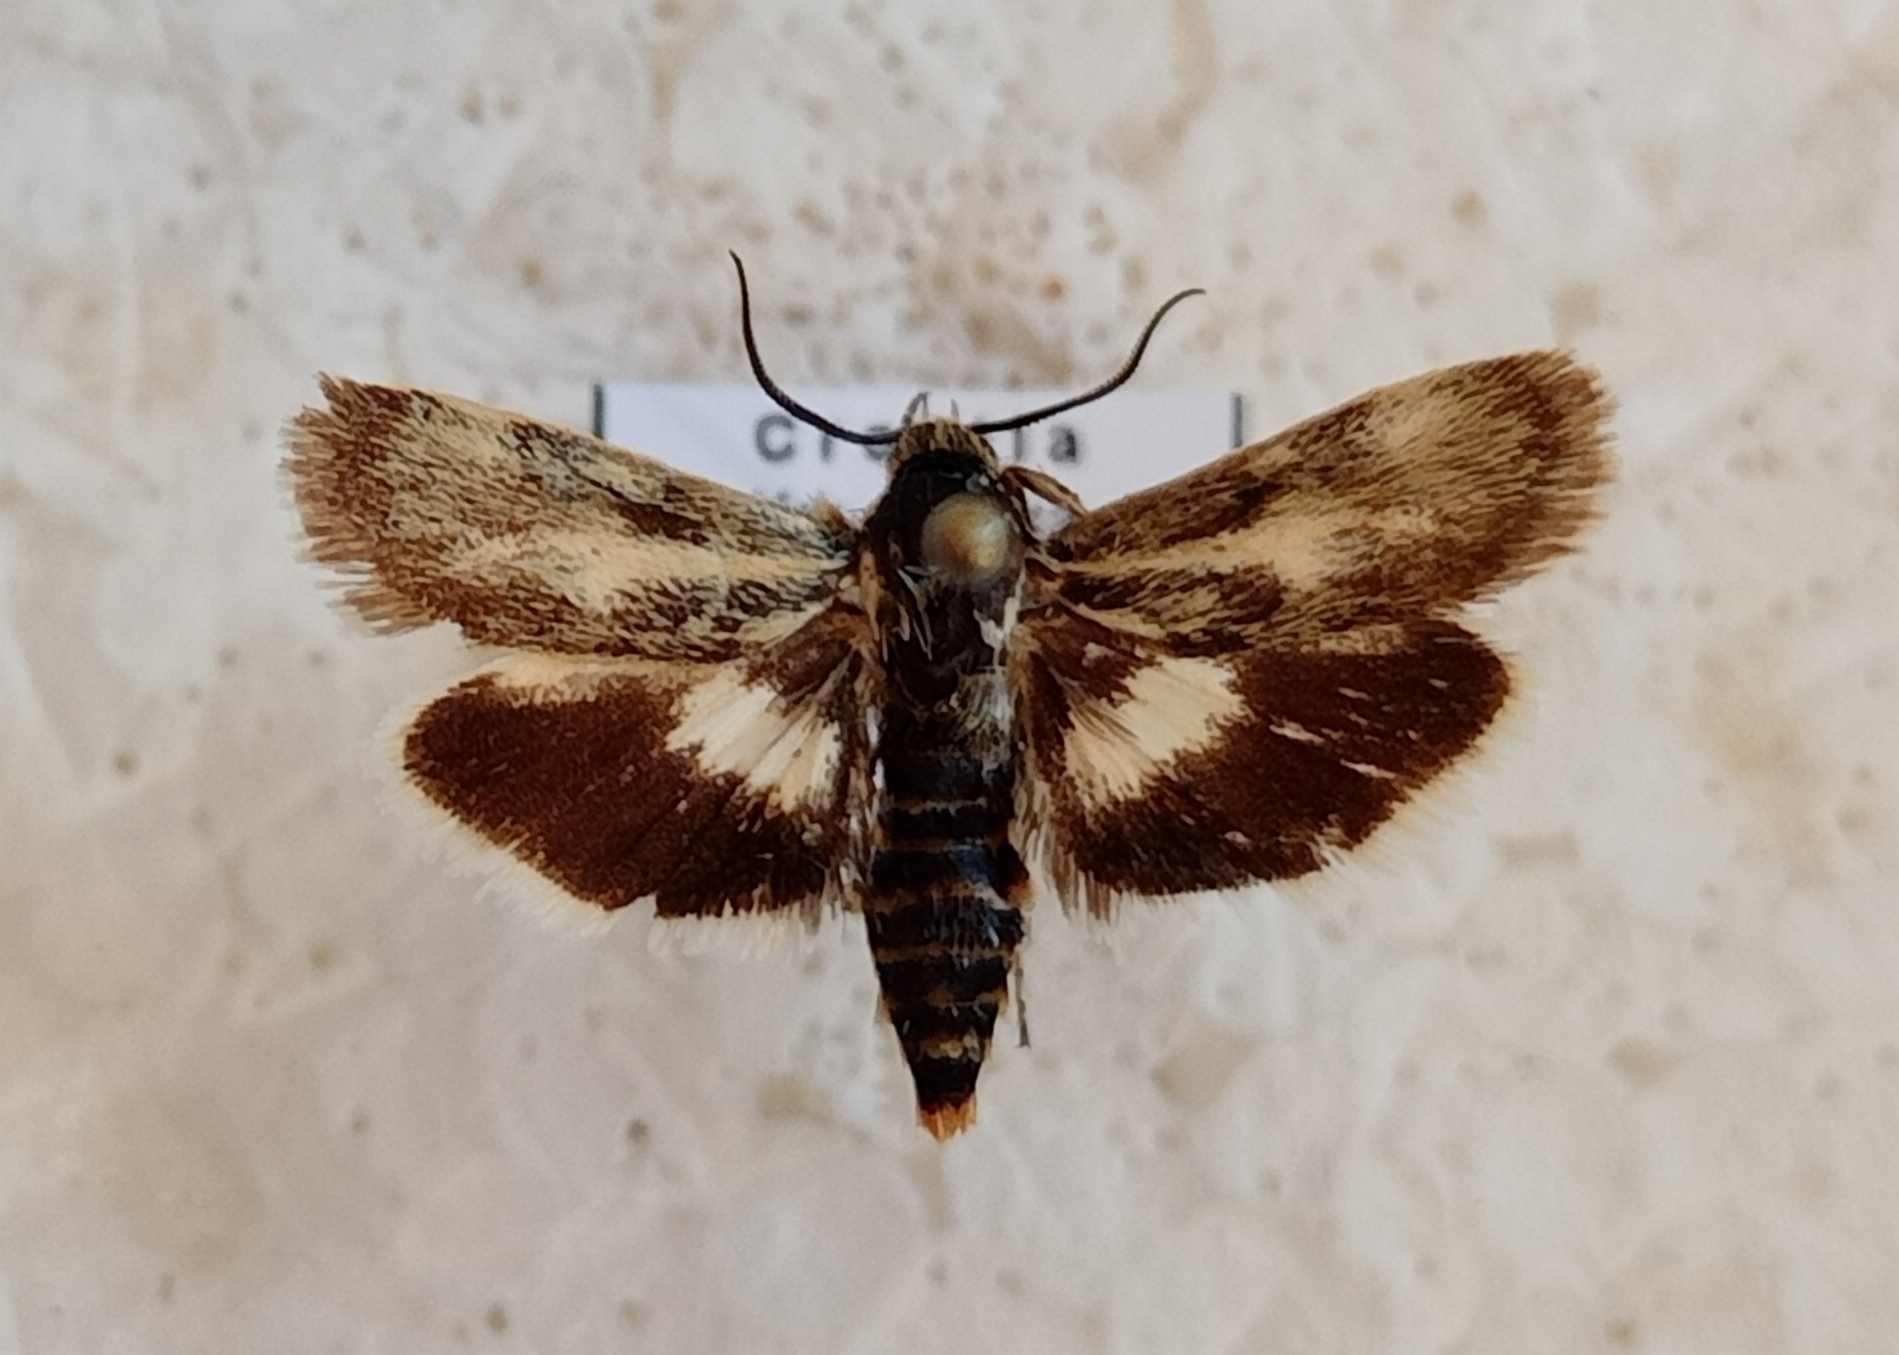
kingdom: Animalia
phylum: Arthropoda
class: Insecta
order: Lepidoptera
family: Brachodidae
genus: Atychia
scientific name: Atychia Brachodes pumila
